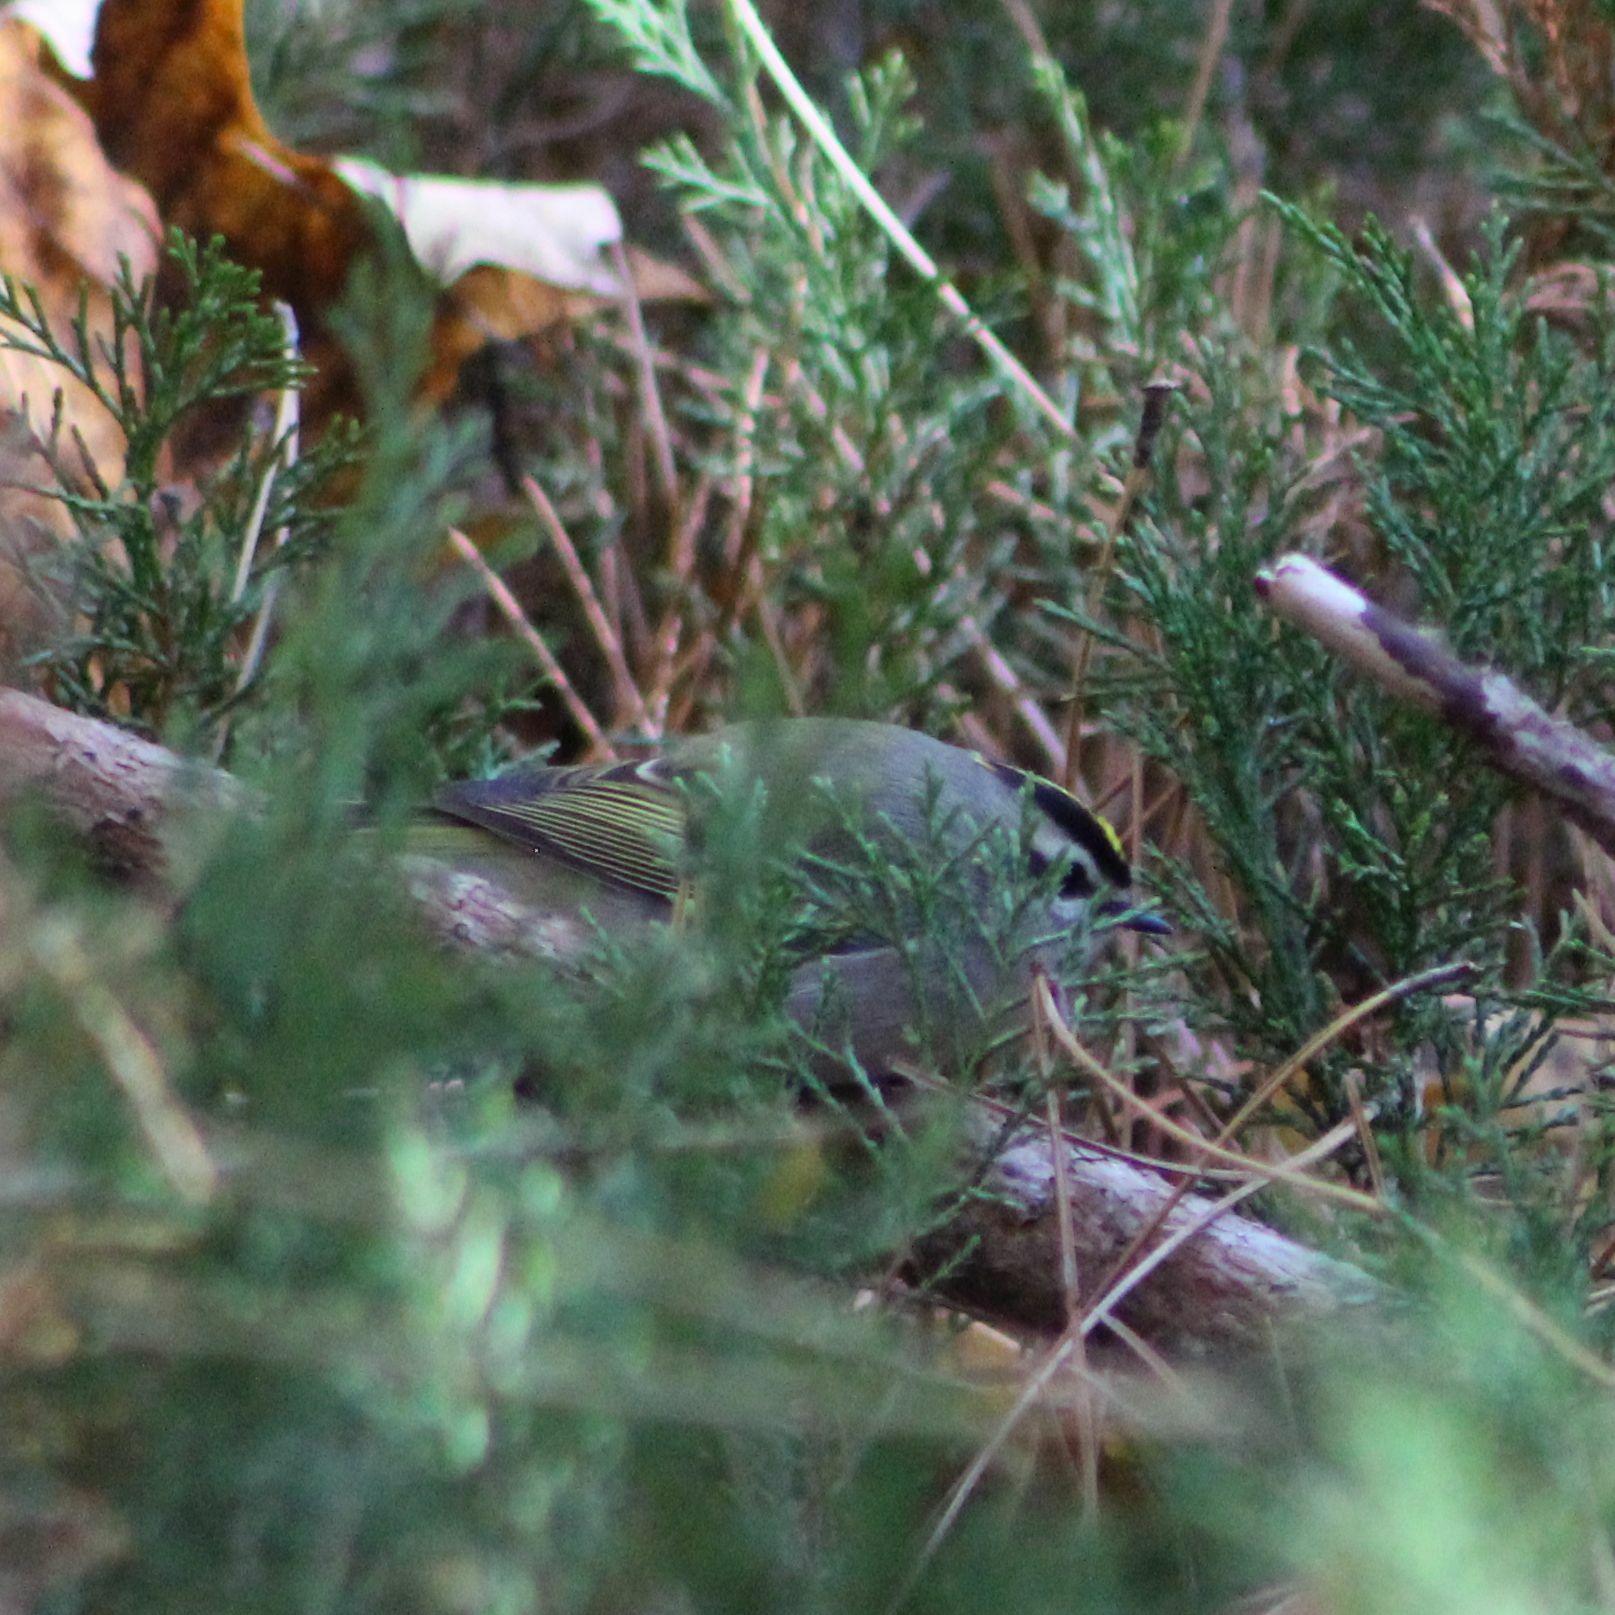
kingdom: Animalia
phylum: Chordata
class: Aves
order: Passeriformes
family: Regulidae
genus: Regulus
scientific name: Regulus satrapa
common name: Golden-crowned kinglet
